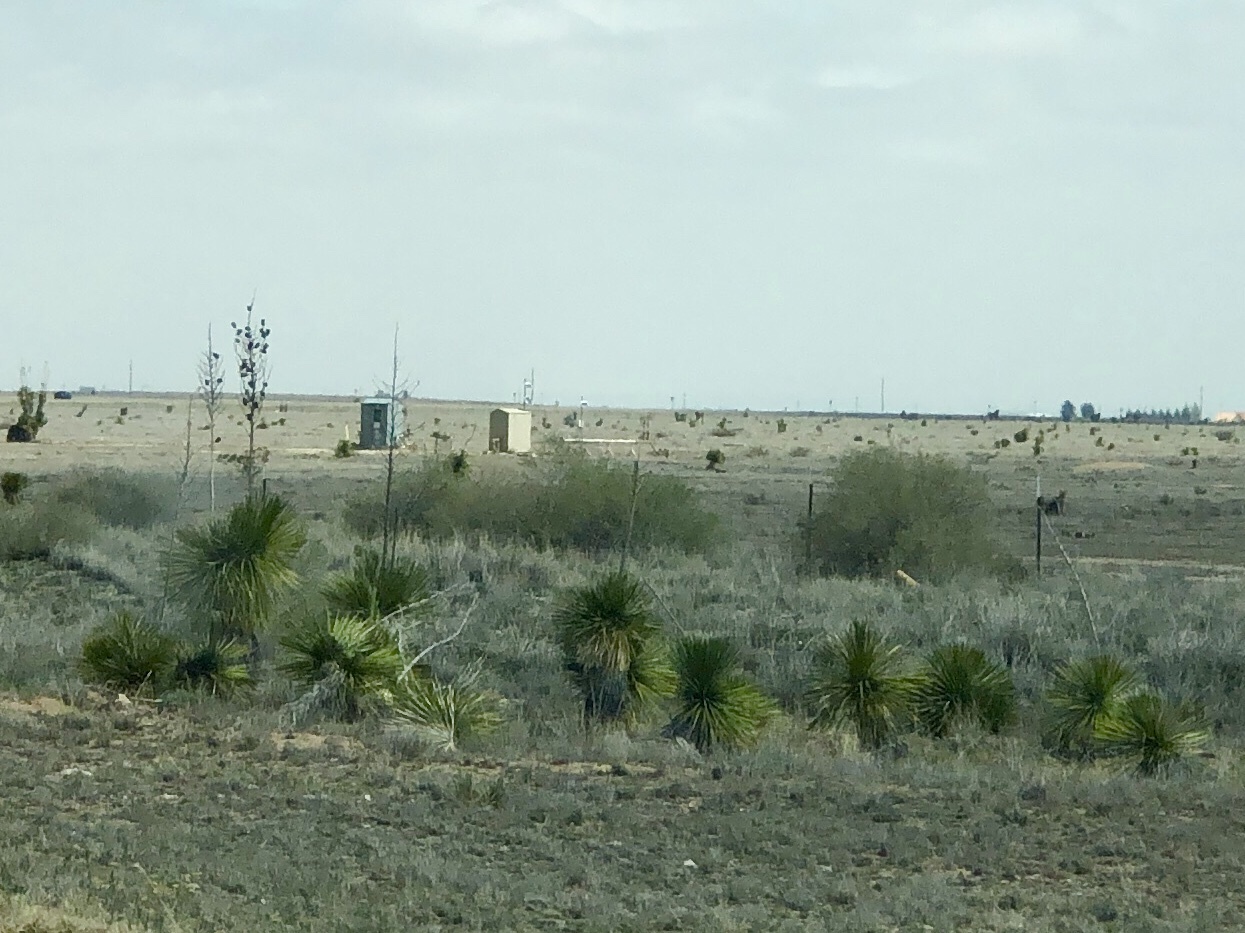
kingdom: Plantae
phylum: Tracheophyta
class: Liliopsida
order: Asparagales
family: Asparagaceae
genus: Yucca
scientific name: Yucca elata
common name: Palmella
